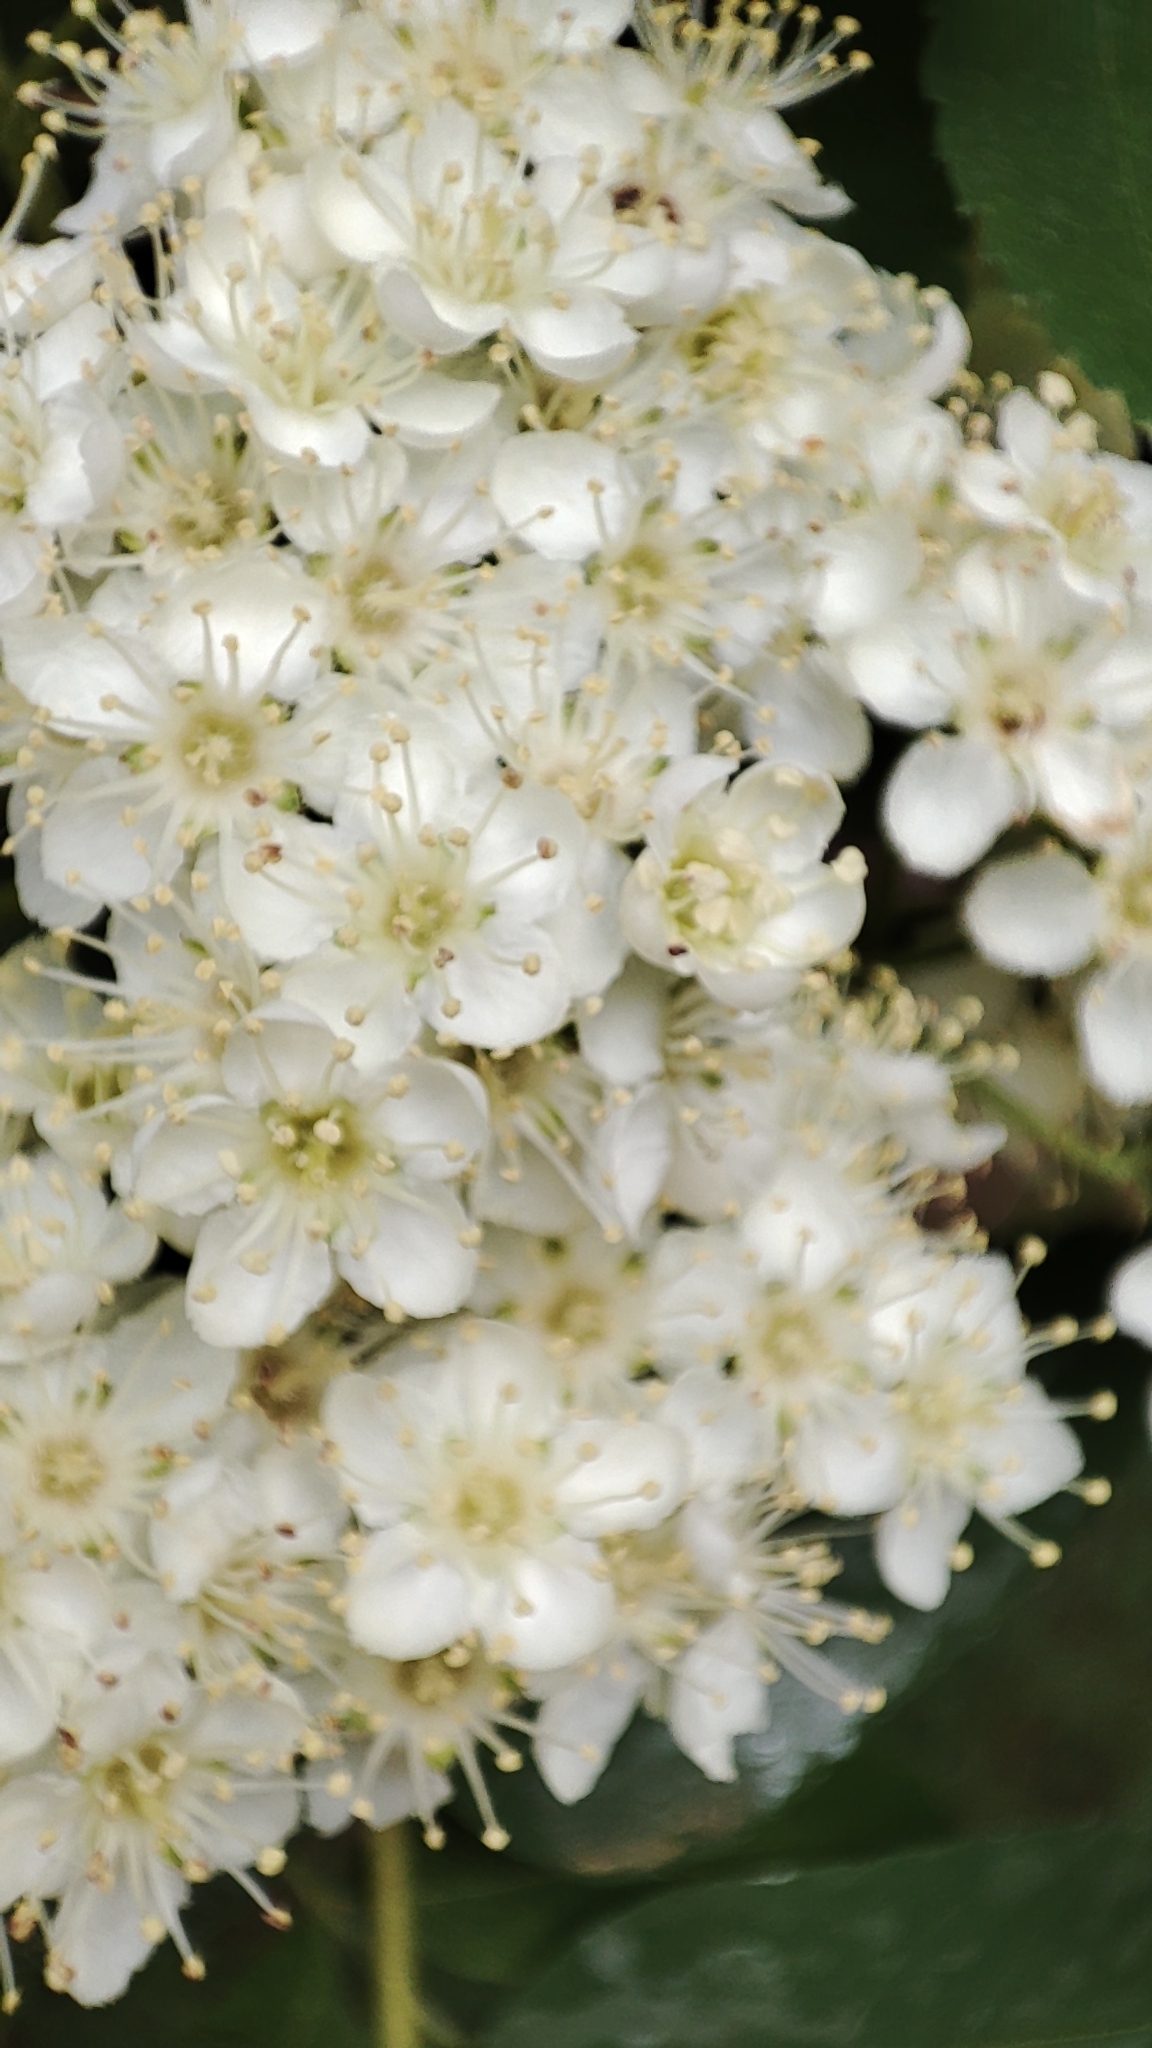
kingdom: Plantae
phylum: Tracheophyta
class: Magnoliopsida
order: Rosales
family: Rosaceae
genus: Sorbus
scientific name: Sorbus aucuparia
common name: Rowan
